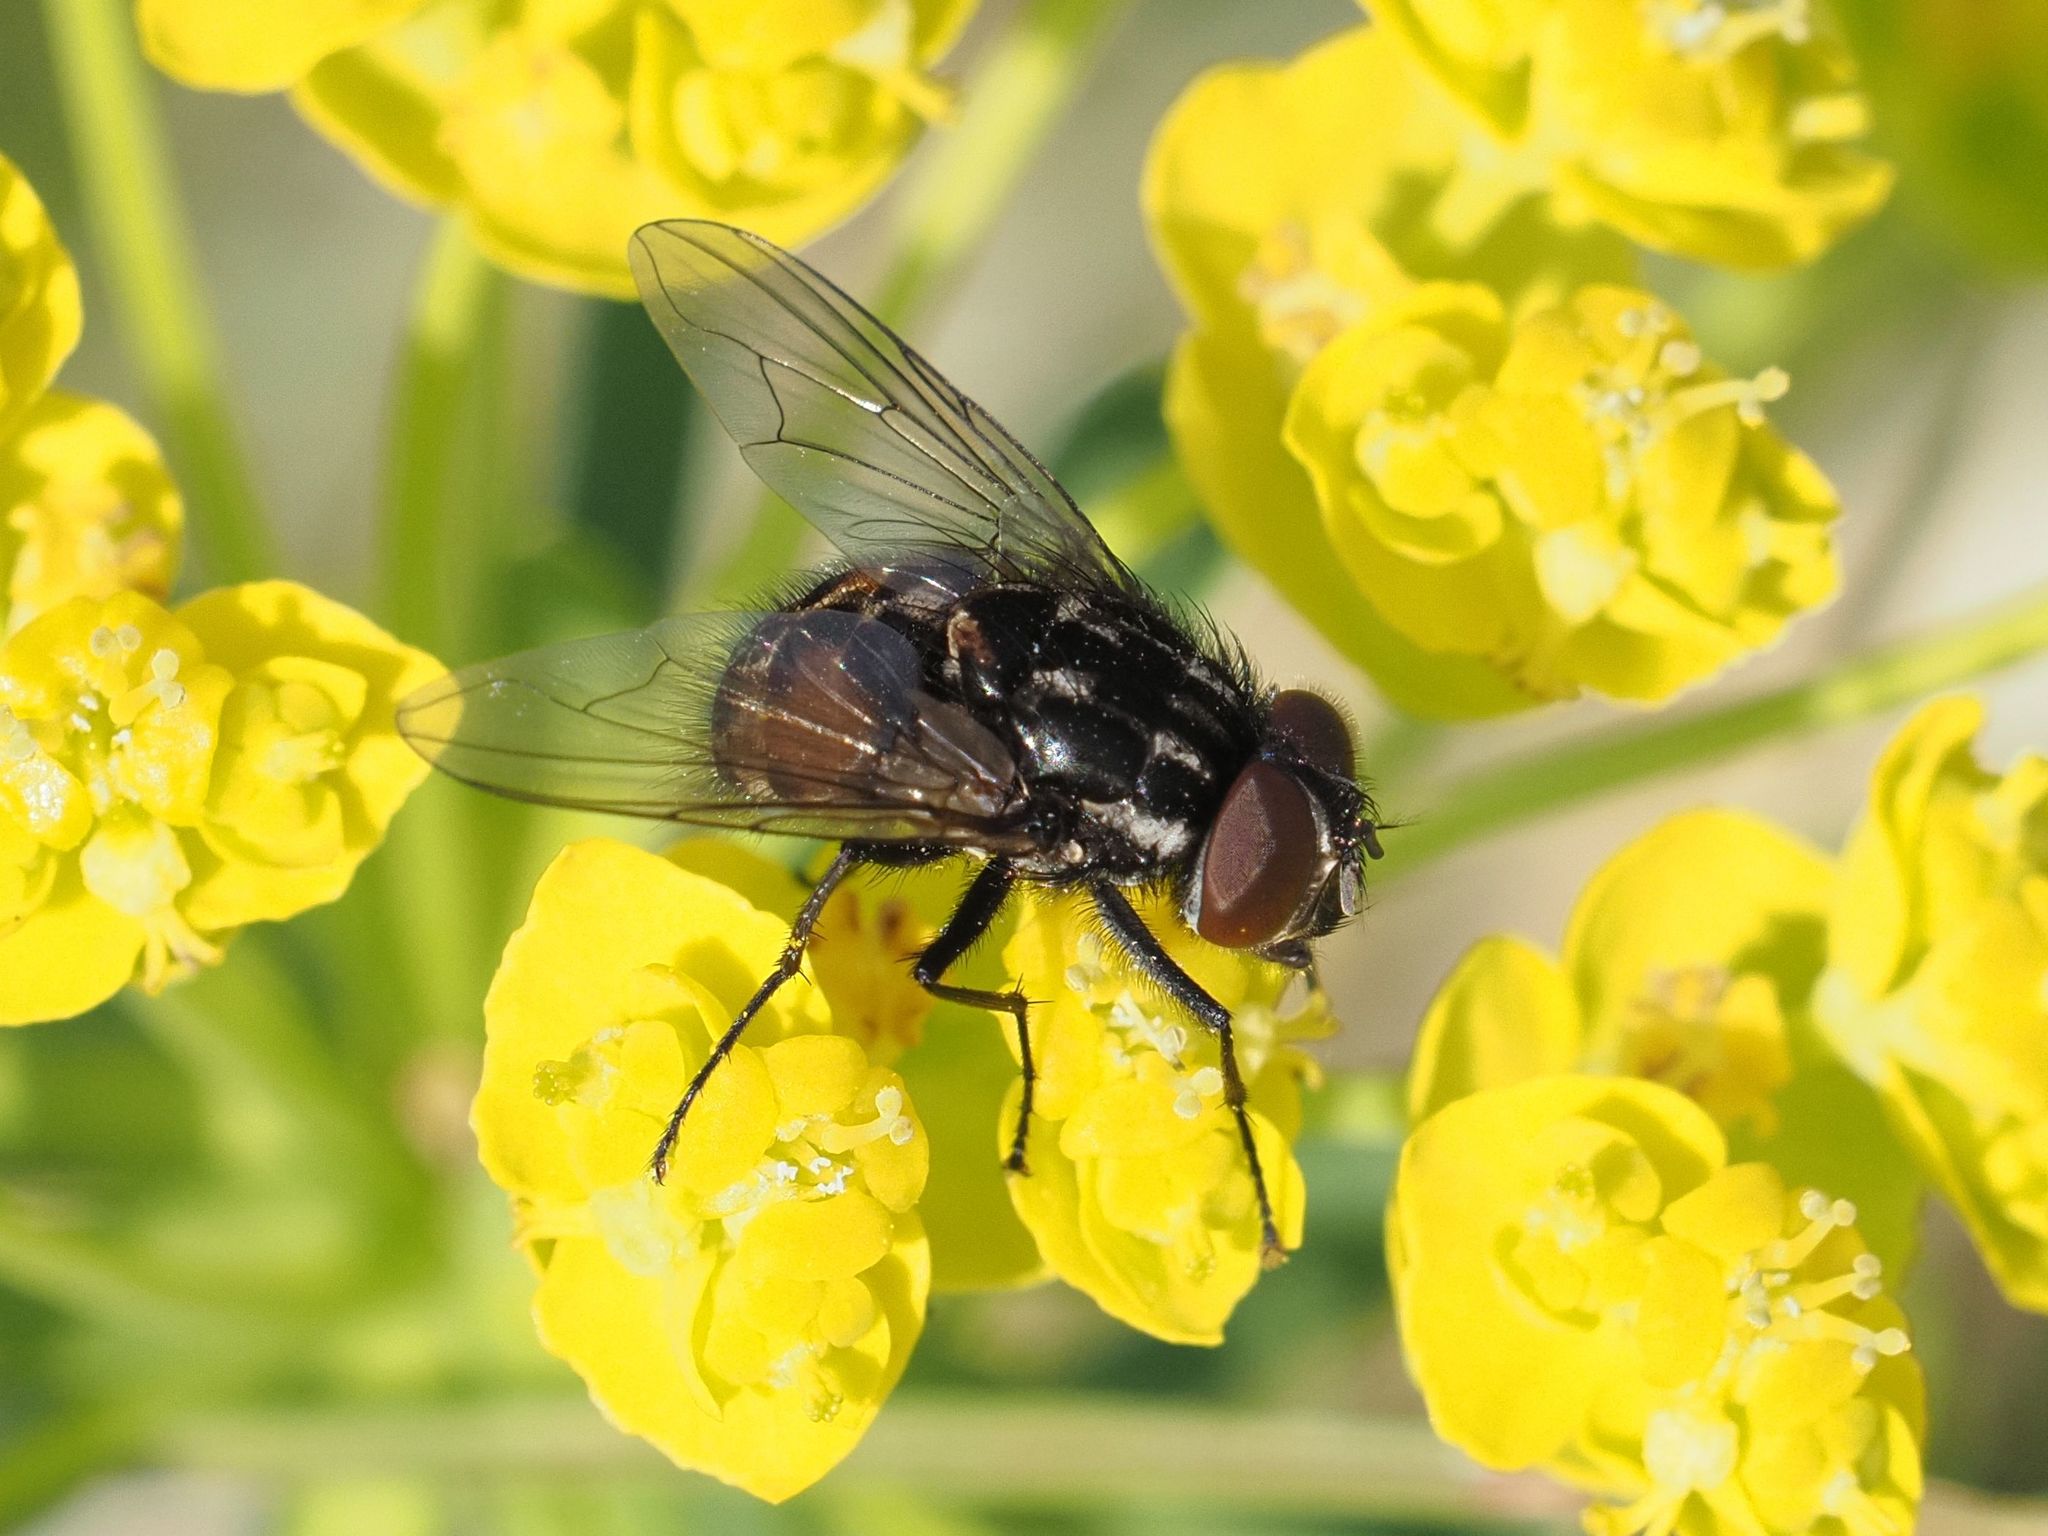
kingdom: Animalia
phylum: Arthropoda
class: Insecta
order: Diptera
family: Muscidae
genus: Graphomya
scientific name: Graphomya maculata
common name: Muscid fly
